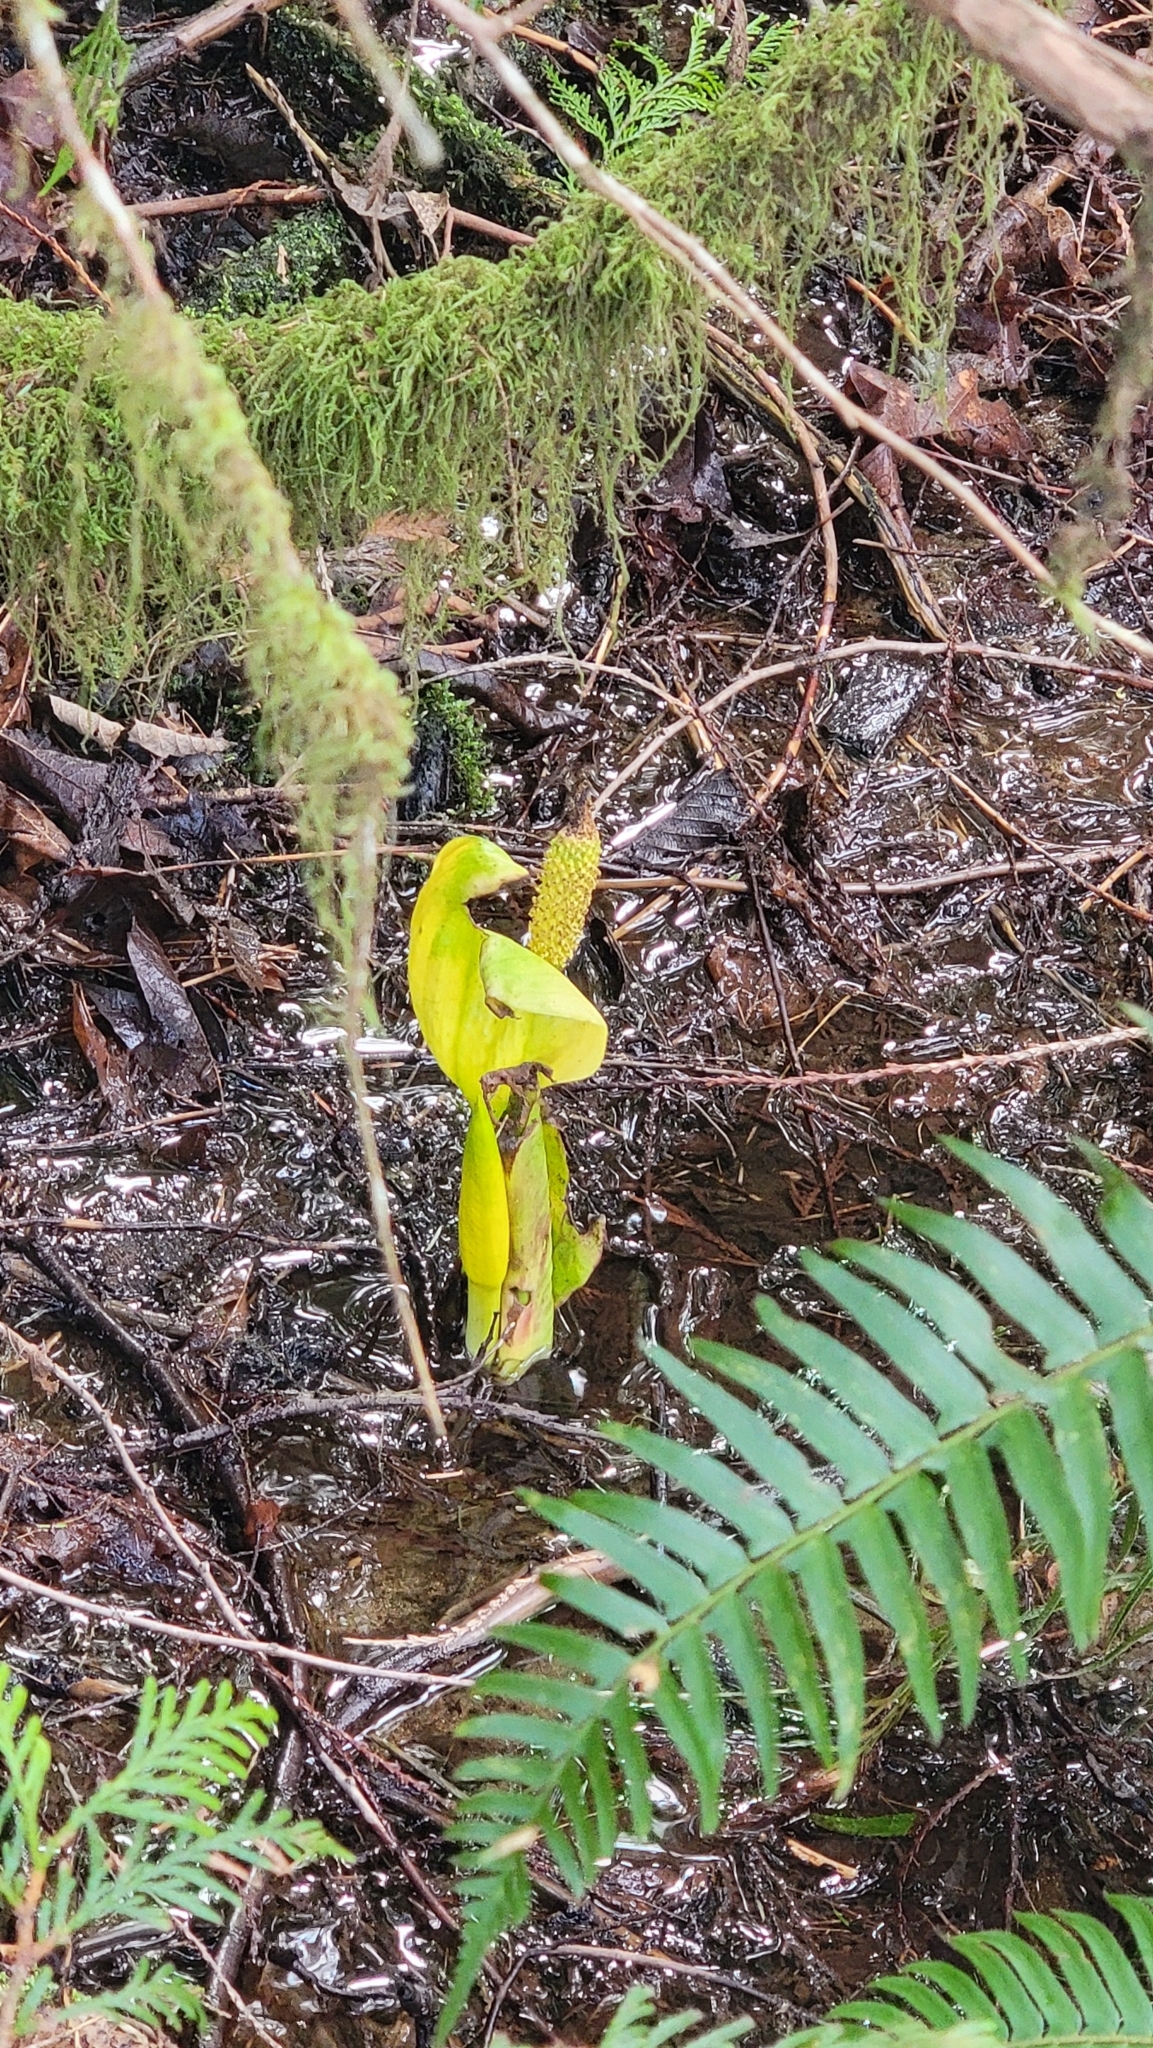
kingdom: Plantae
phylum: Tracheophyta
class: Liliopsida
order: Alismatales
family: Araceae
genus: Lysichiton
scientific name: Lysichiton americanus
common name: American skunk cabbage
